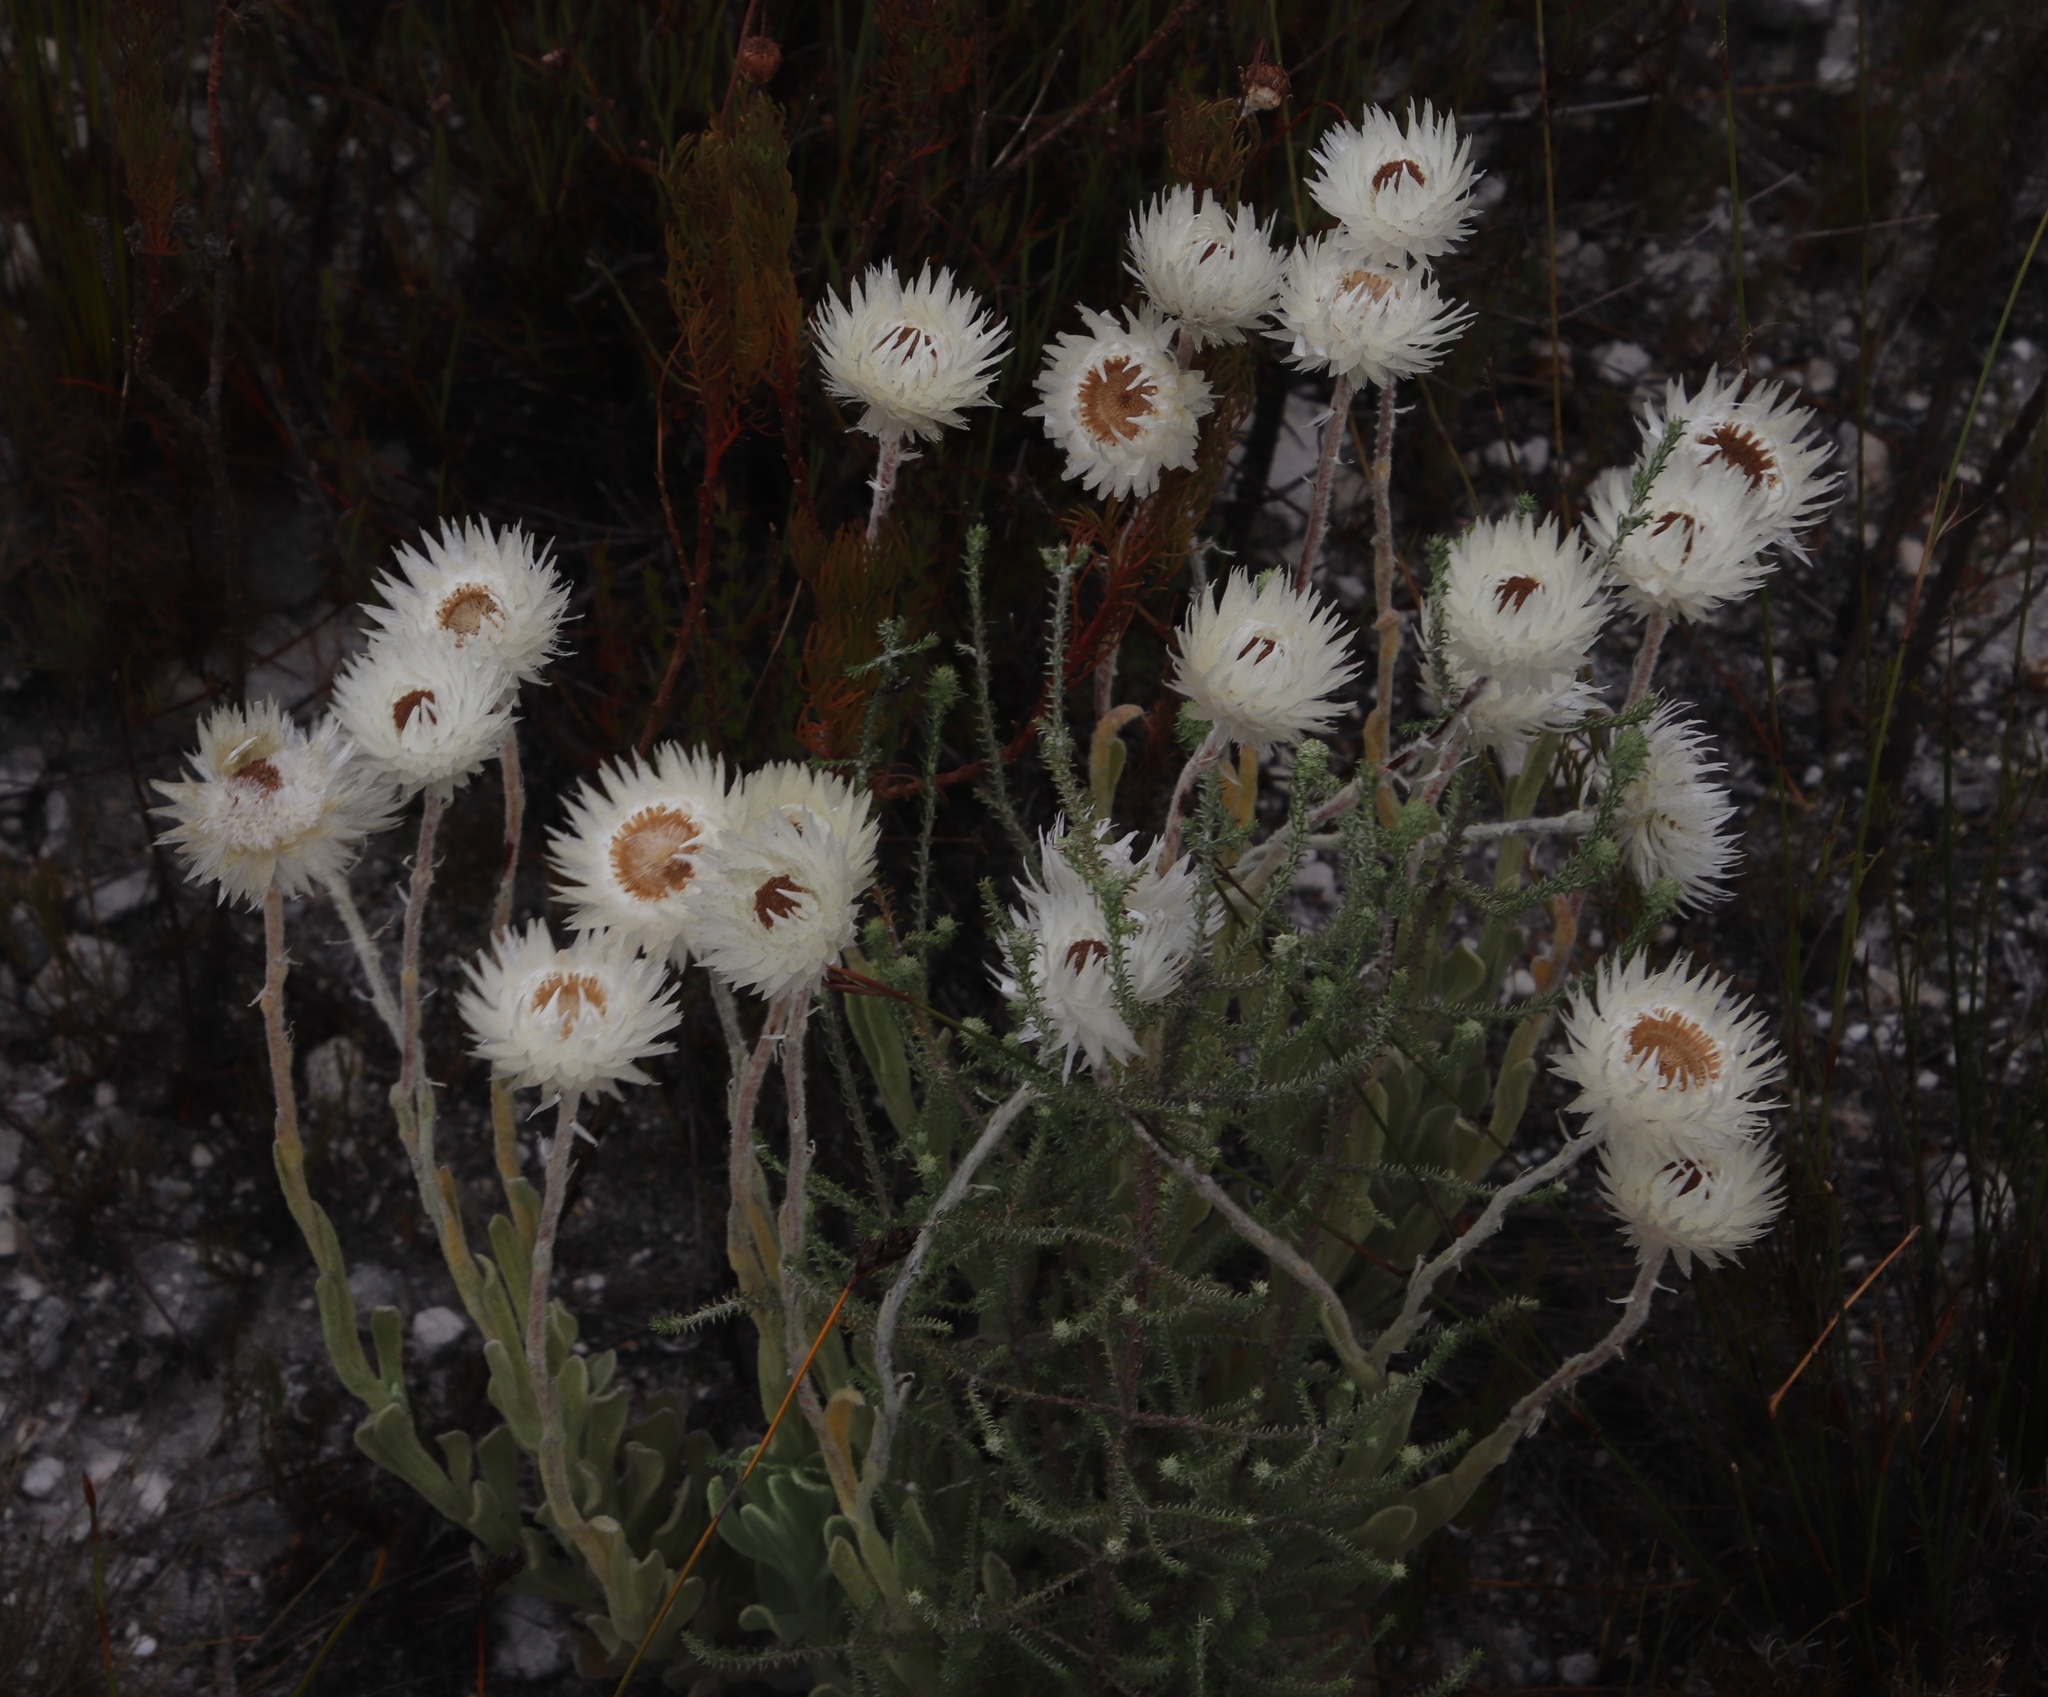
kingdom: Plantae
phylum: Tracheophyta
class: Magnoliopsida
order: Asterales
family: Asteraceae
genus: Syncarpha
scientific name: Syncarpha vestita
